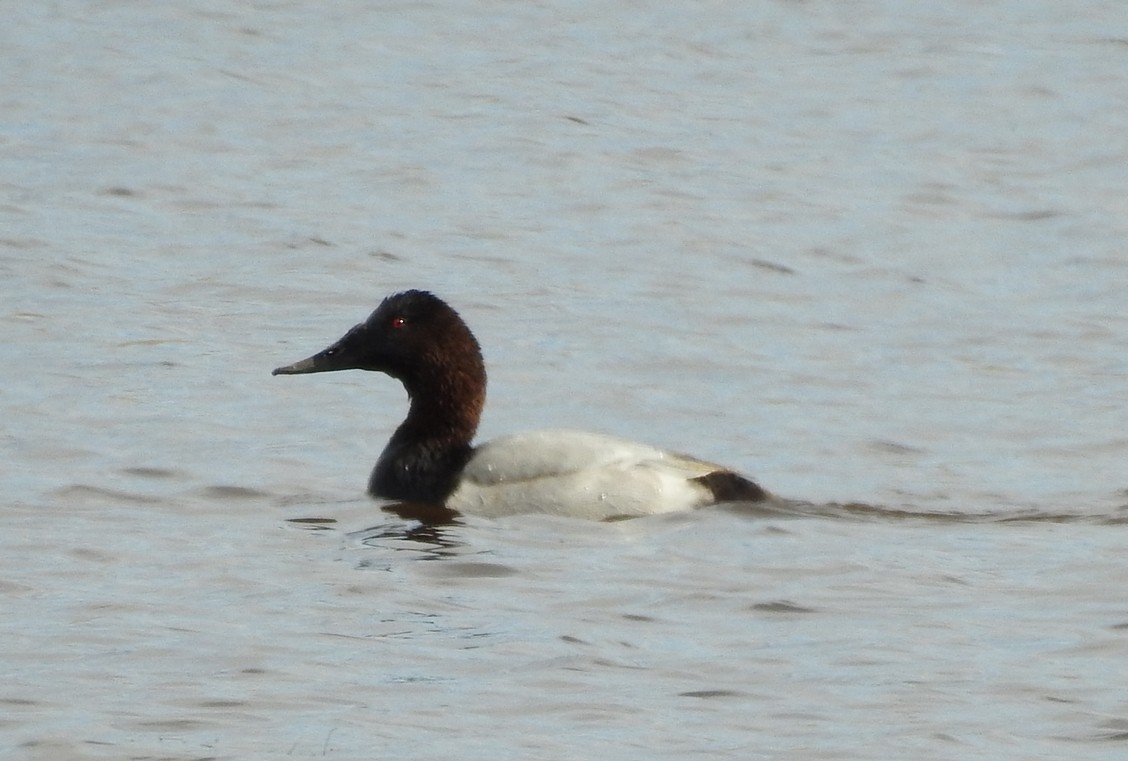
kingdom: Animalia
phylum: Chordata
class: Aves
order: Anseriformes
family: Anatidae
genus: Aythya
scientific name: Aythya valisineria
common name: Canvasback
